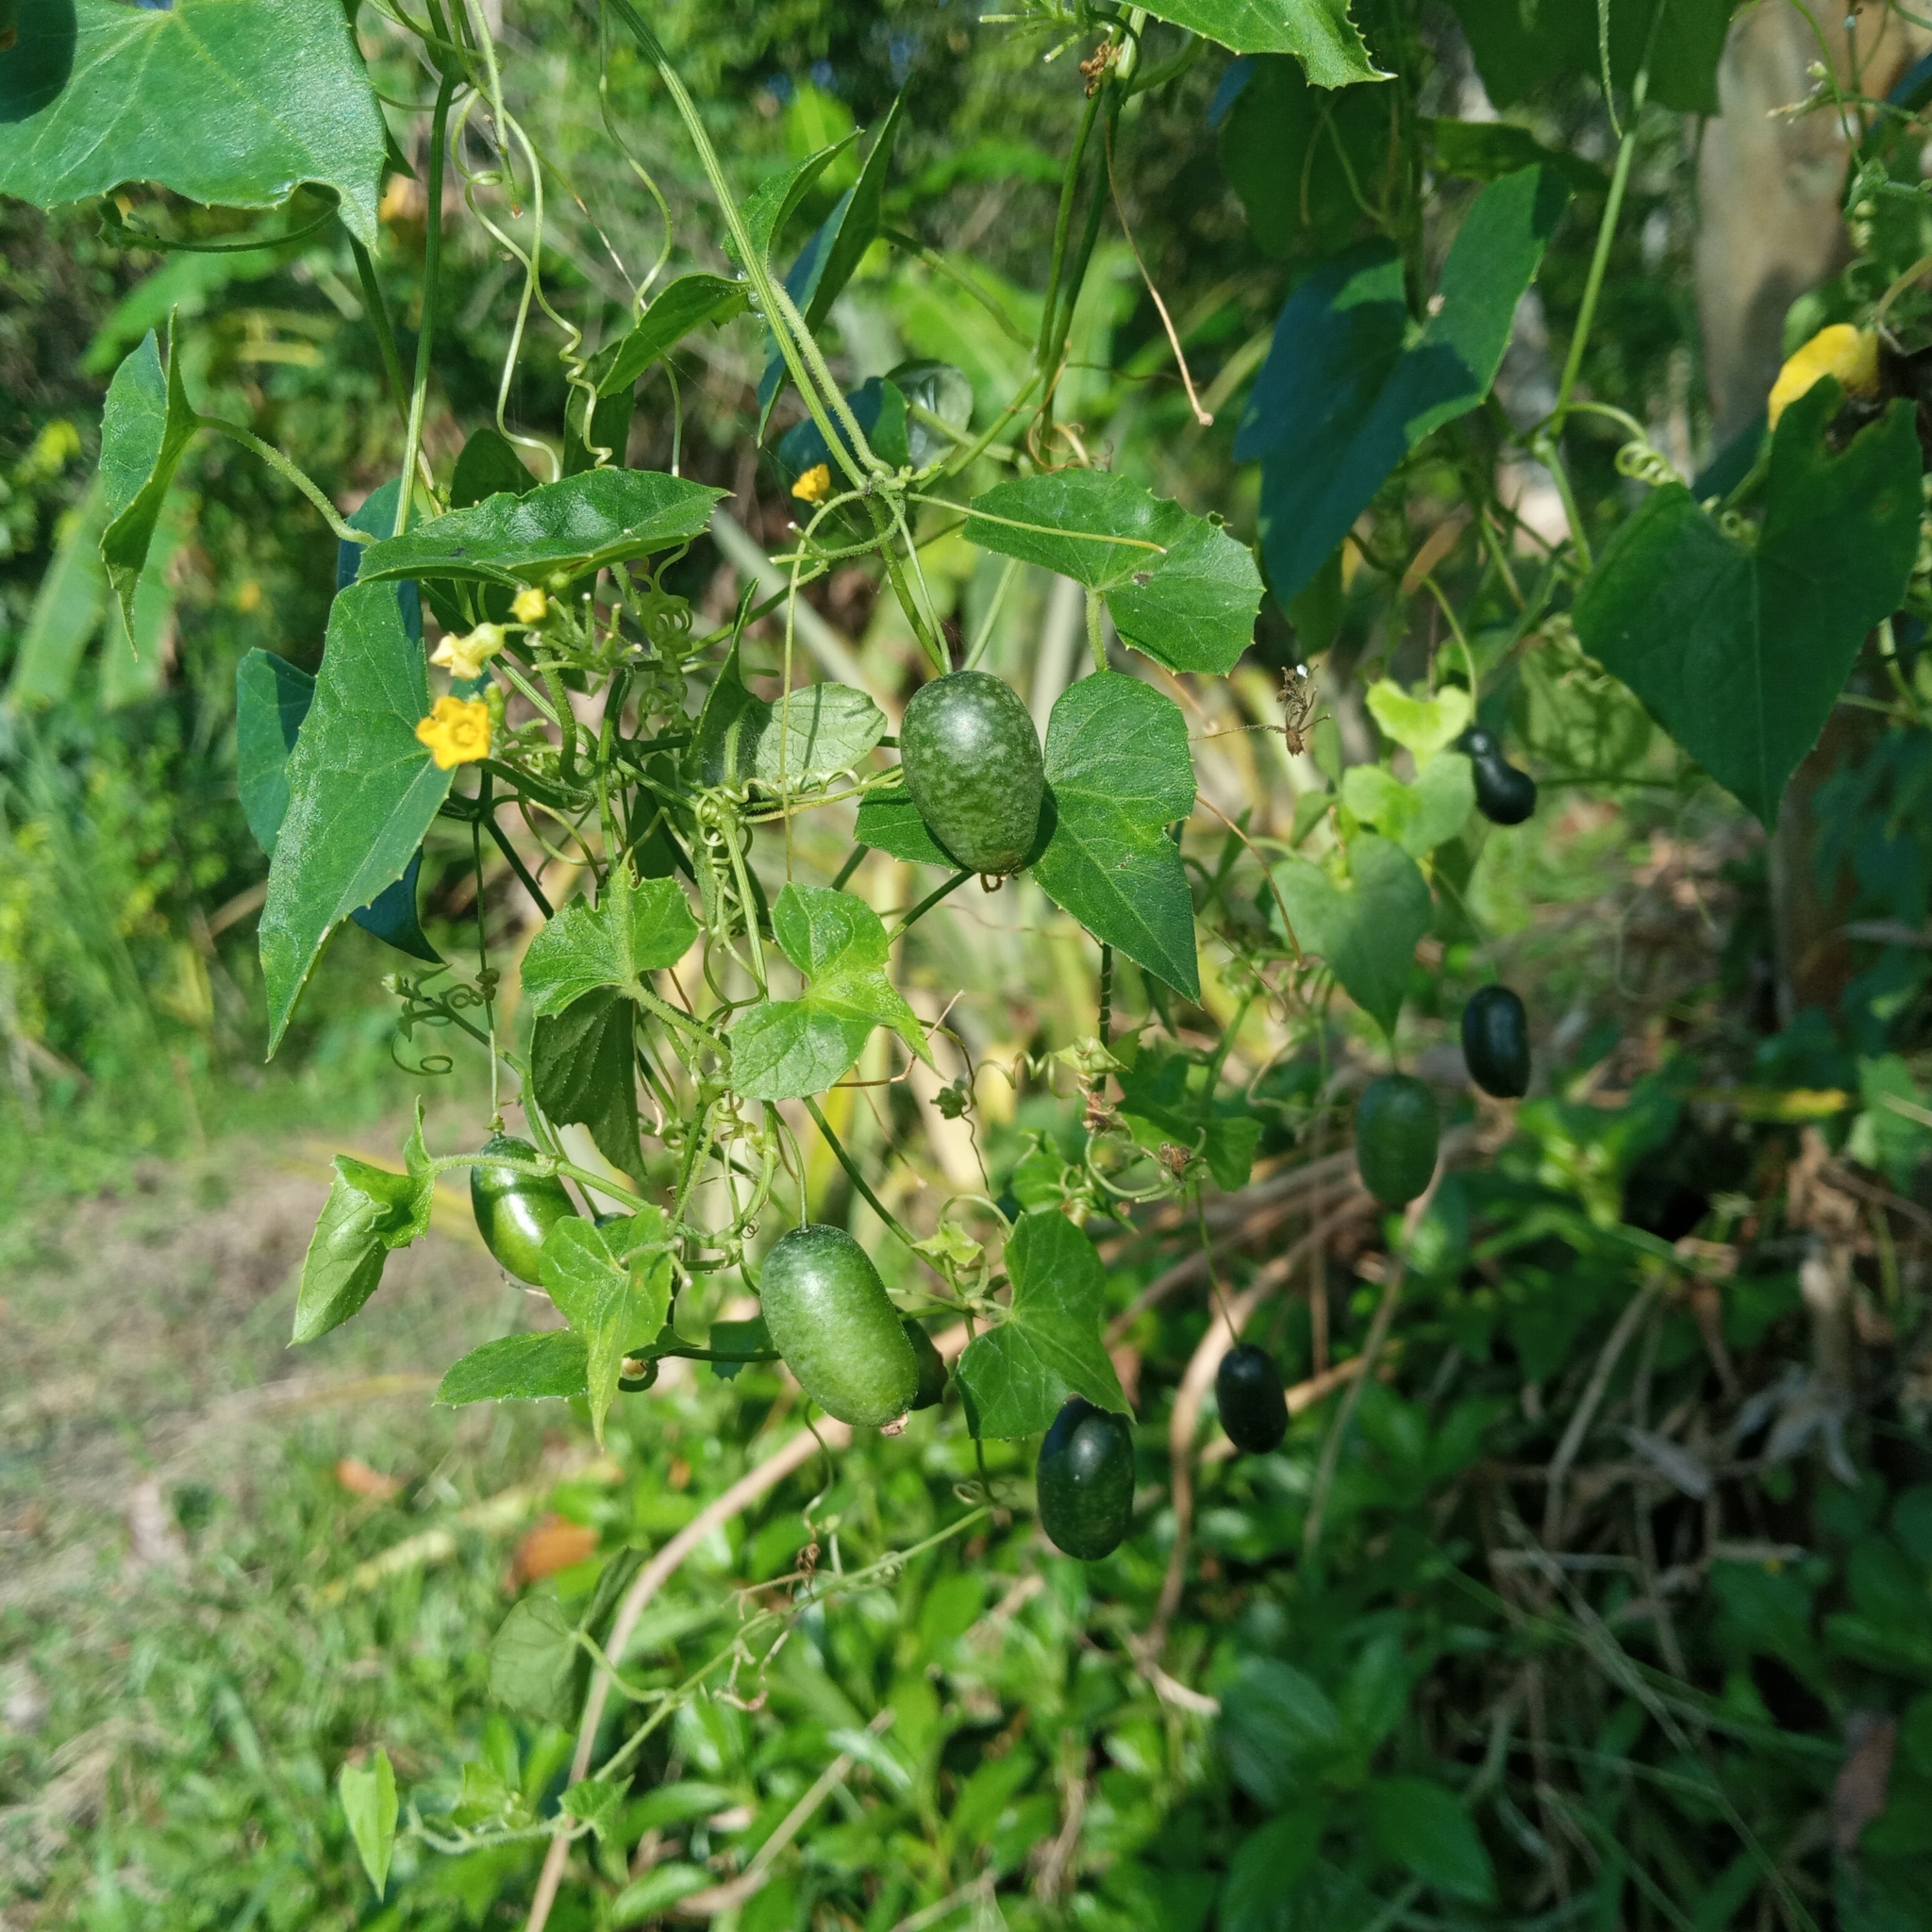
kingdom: Plantae
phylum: Tracheophyta
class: Magnoliopsida
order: Cucurbitales
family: Cucurbitaceae
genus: Melothria
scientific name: Melothria pendula
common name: Creeping-cucumber
